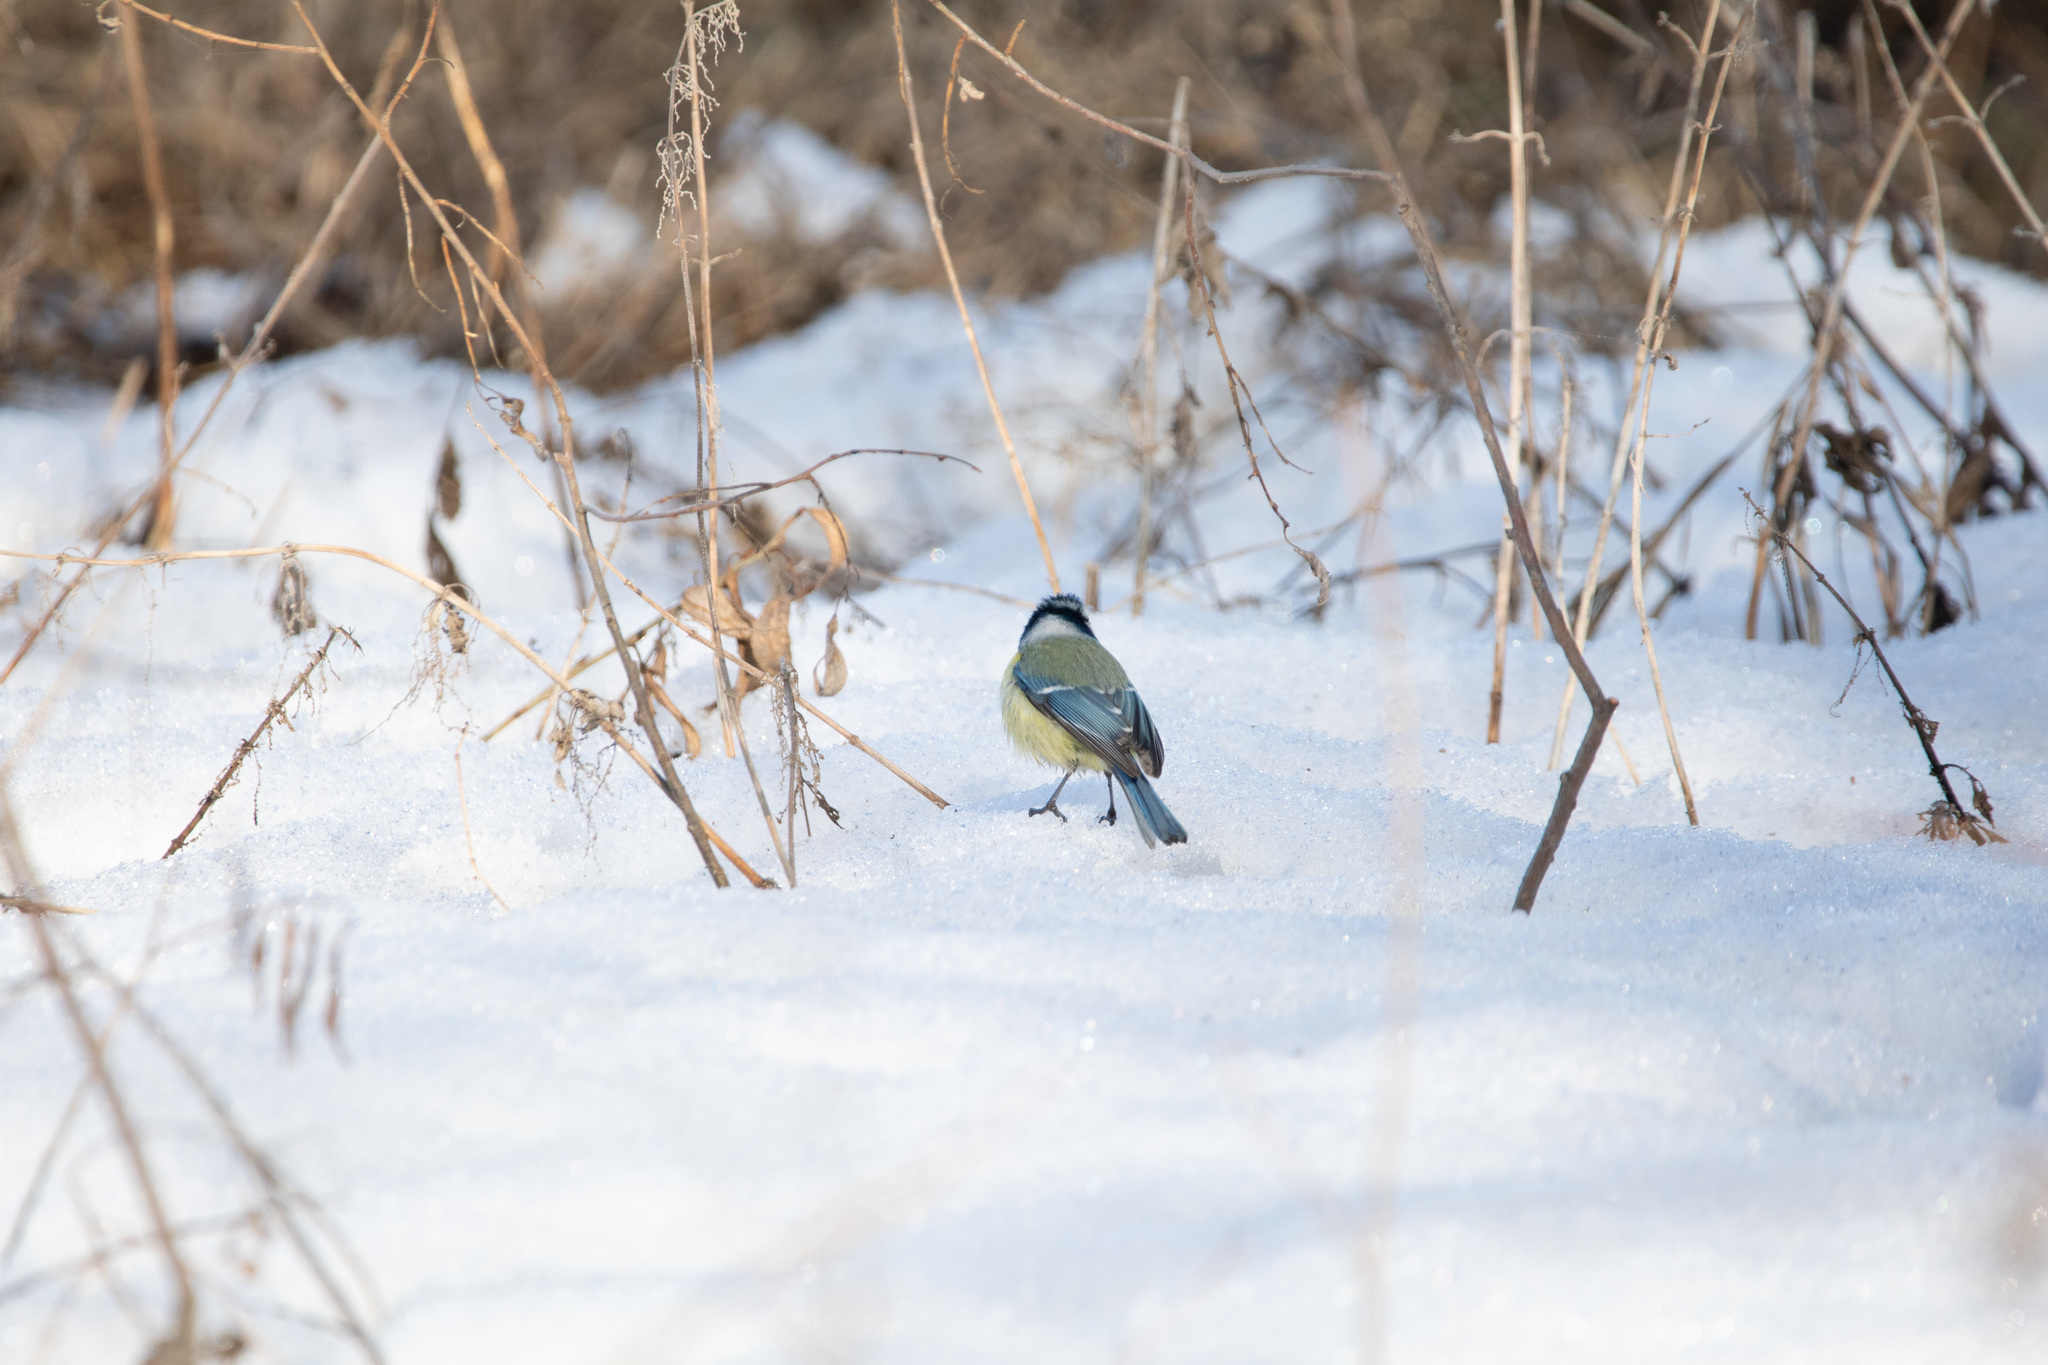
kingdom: Animalia
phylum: Chordata
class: Aves
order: Passeriformes
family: Paridae
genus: Cyanistes
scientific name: Cyanistes caeruleus
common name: Eurasian blue tit
